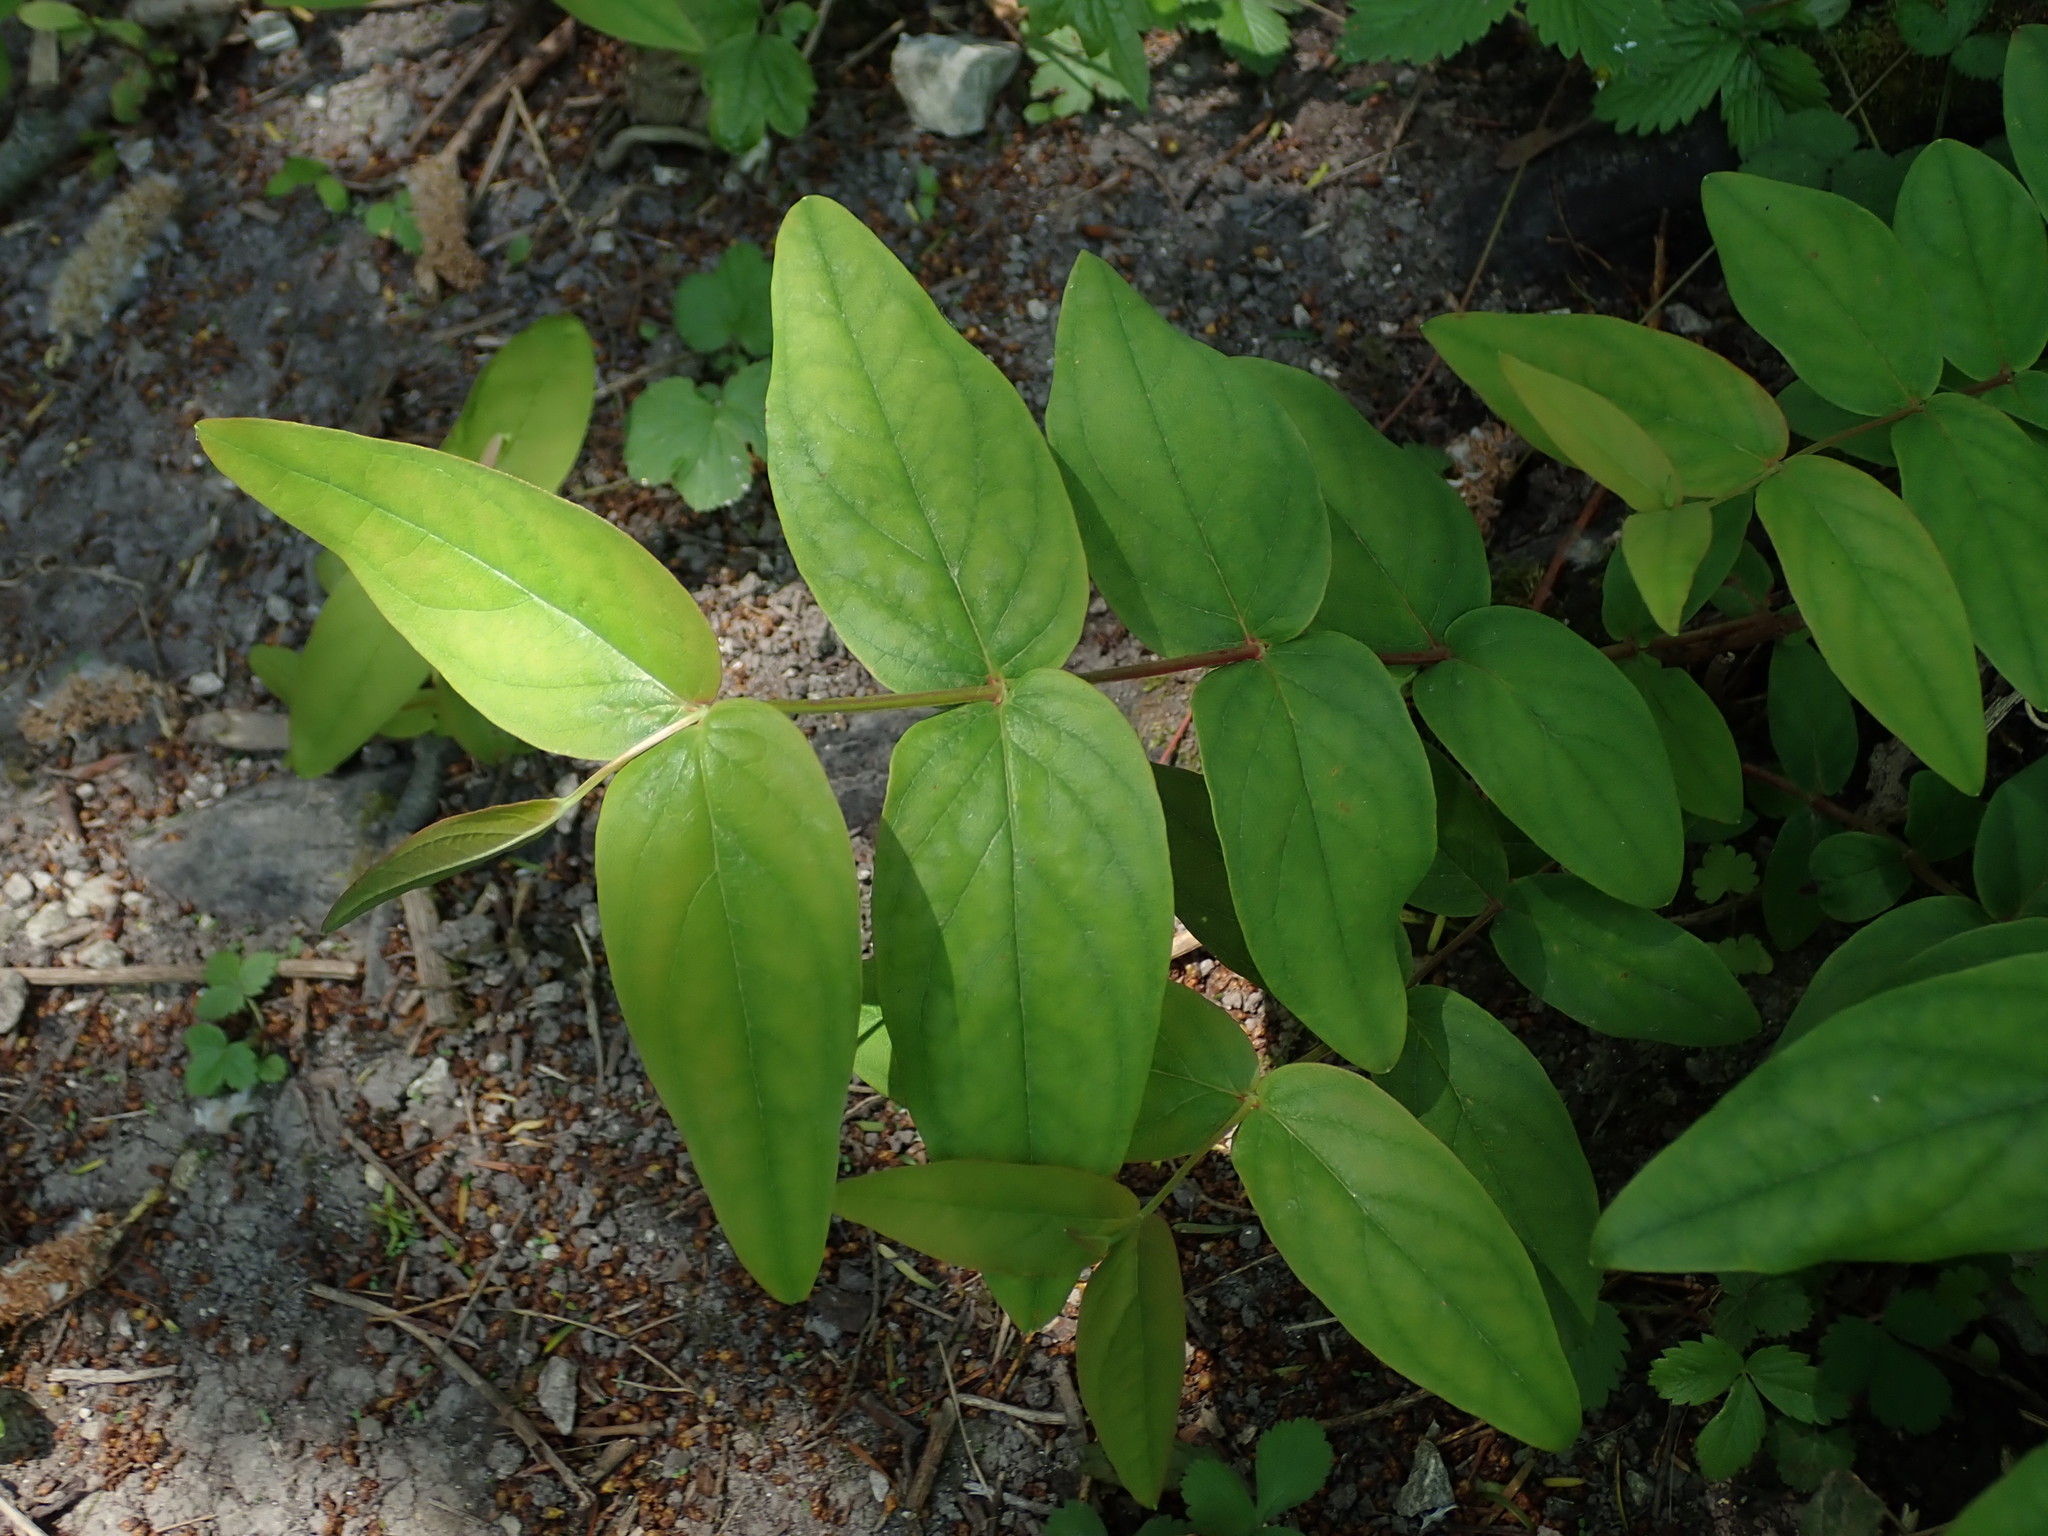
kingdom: Plantae
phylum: Tracheophyta
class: Magnoliopsida
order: Malpighiales
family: Hypericaceae
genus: Hypericum
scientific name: Hypericum androsaemum
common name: Sweet-amber
